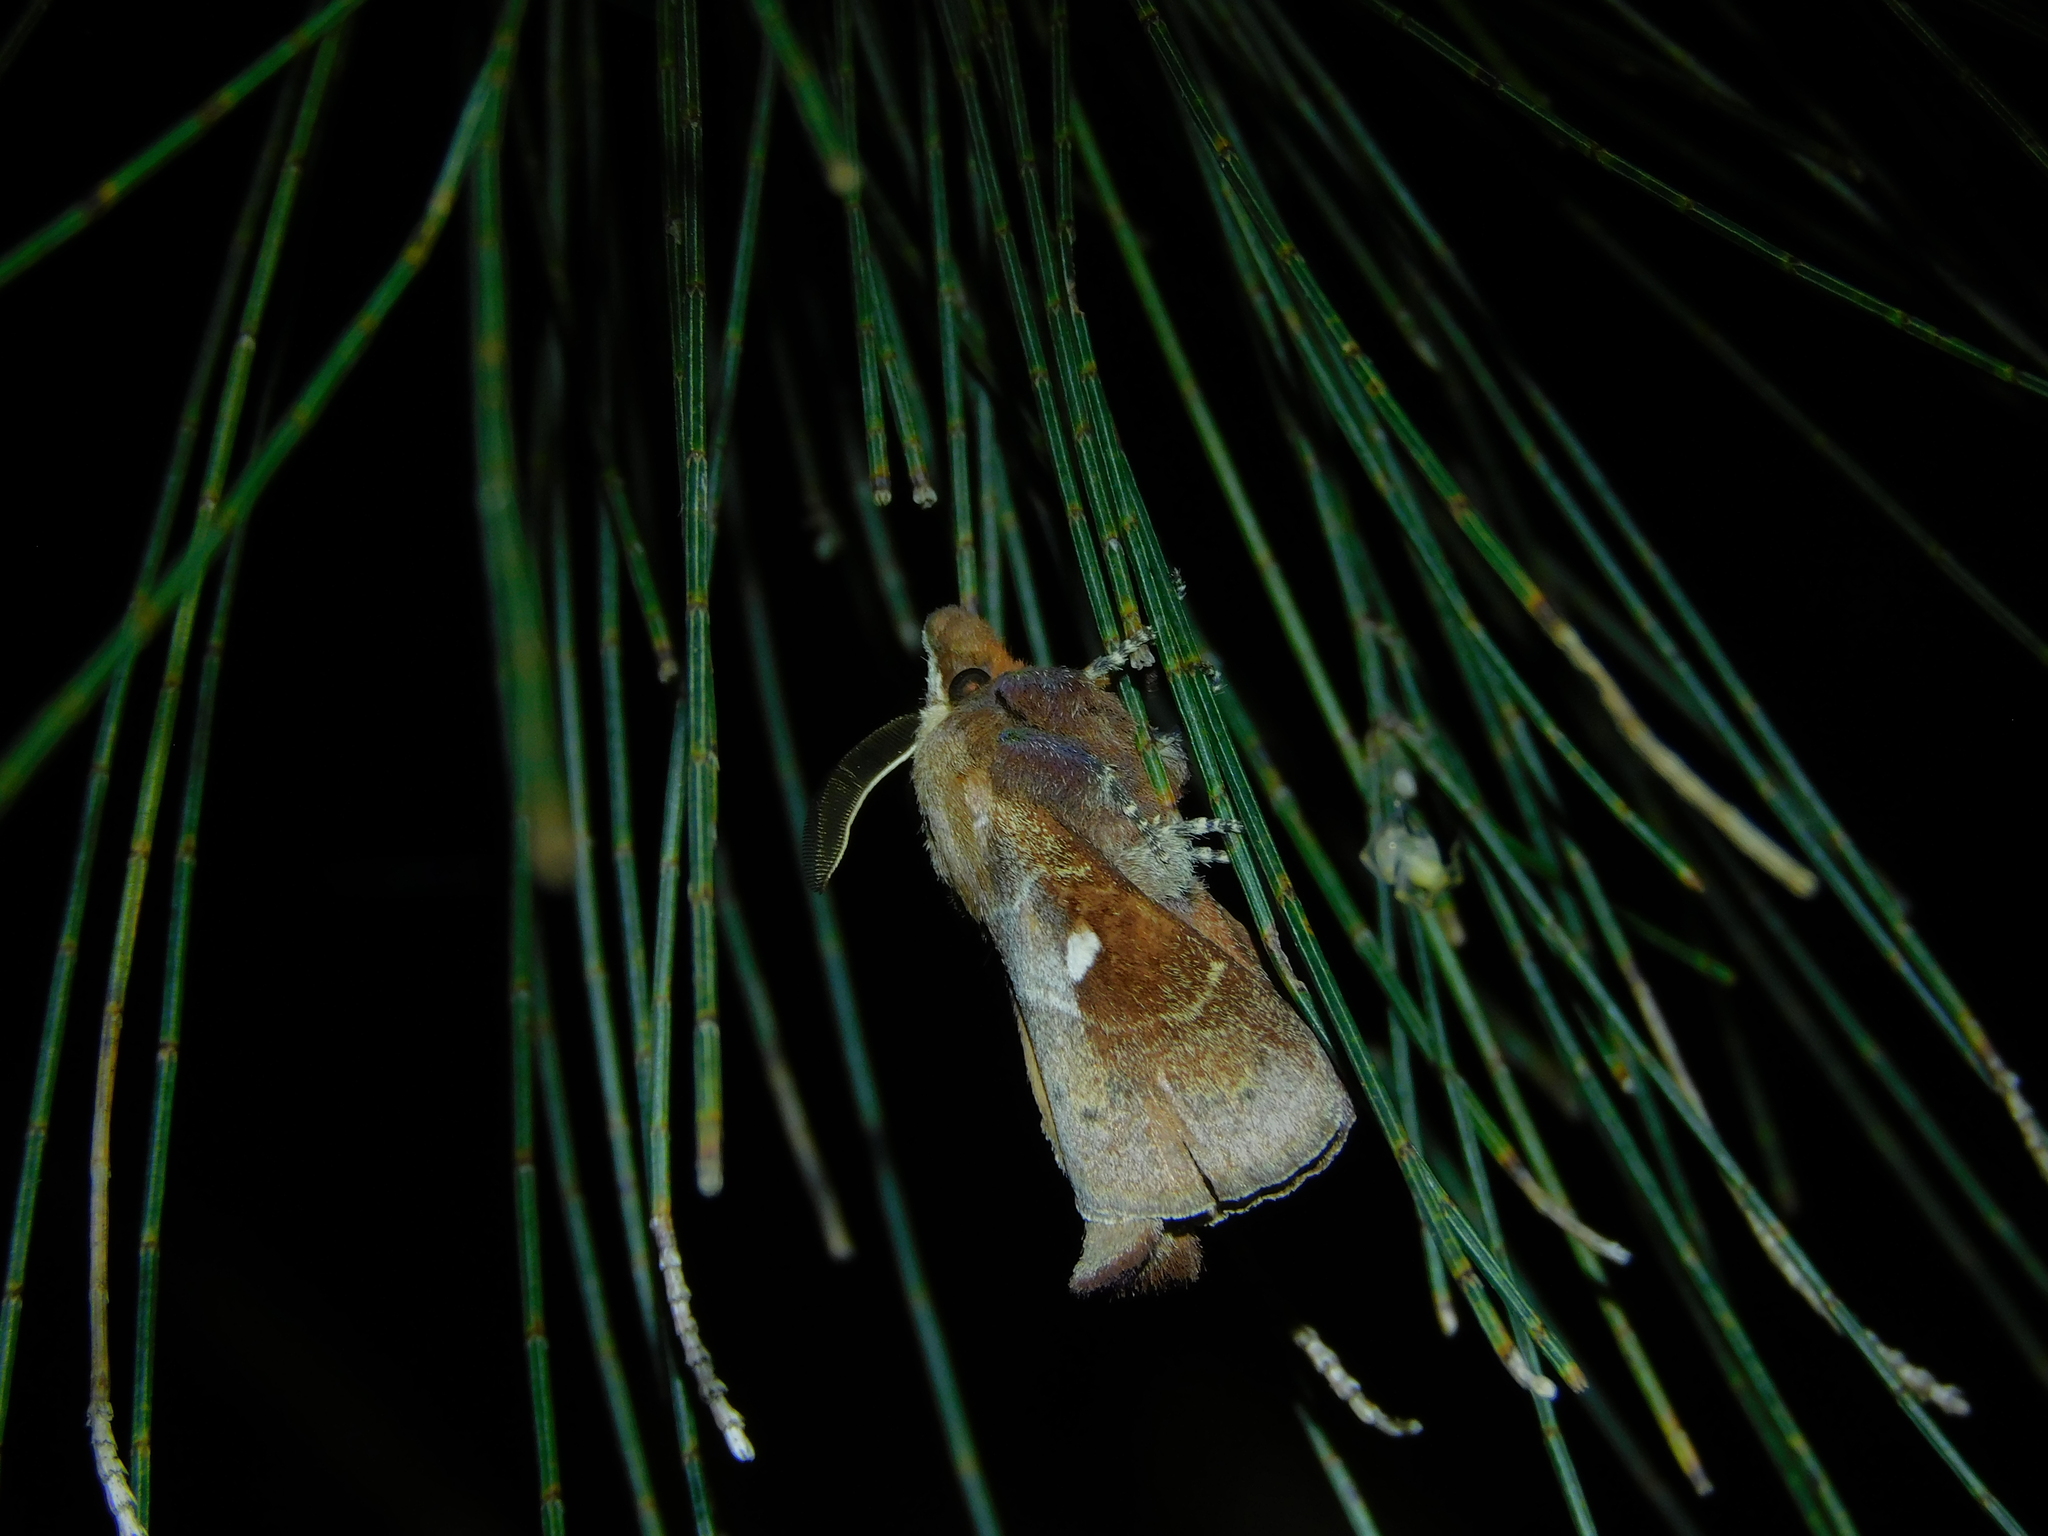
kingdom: Animalia
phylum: Arthropoda
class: Insecta
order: Lepidoptera
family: Lasiocampidae
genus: Opsirhina
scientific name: Opsirhina albigutta
